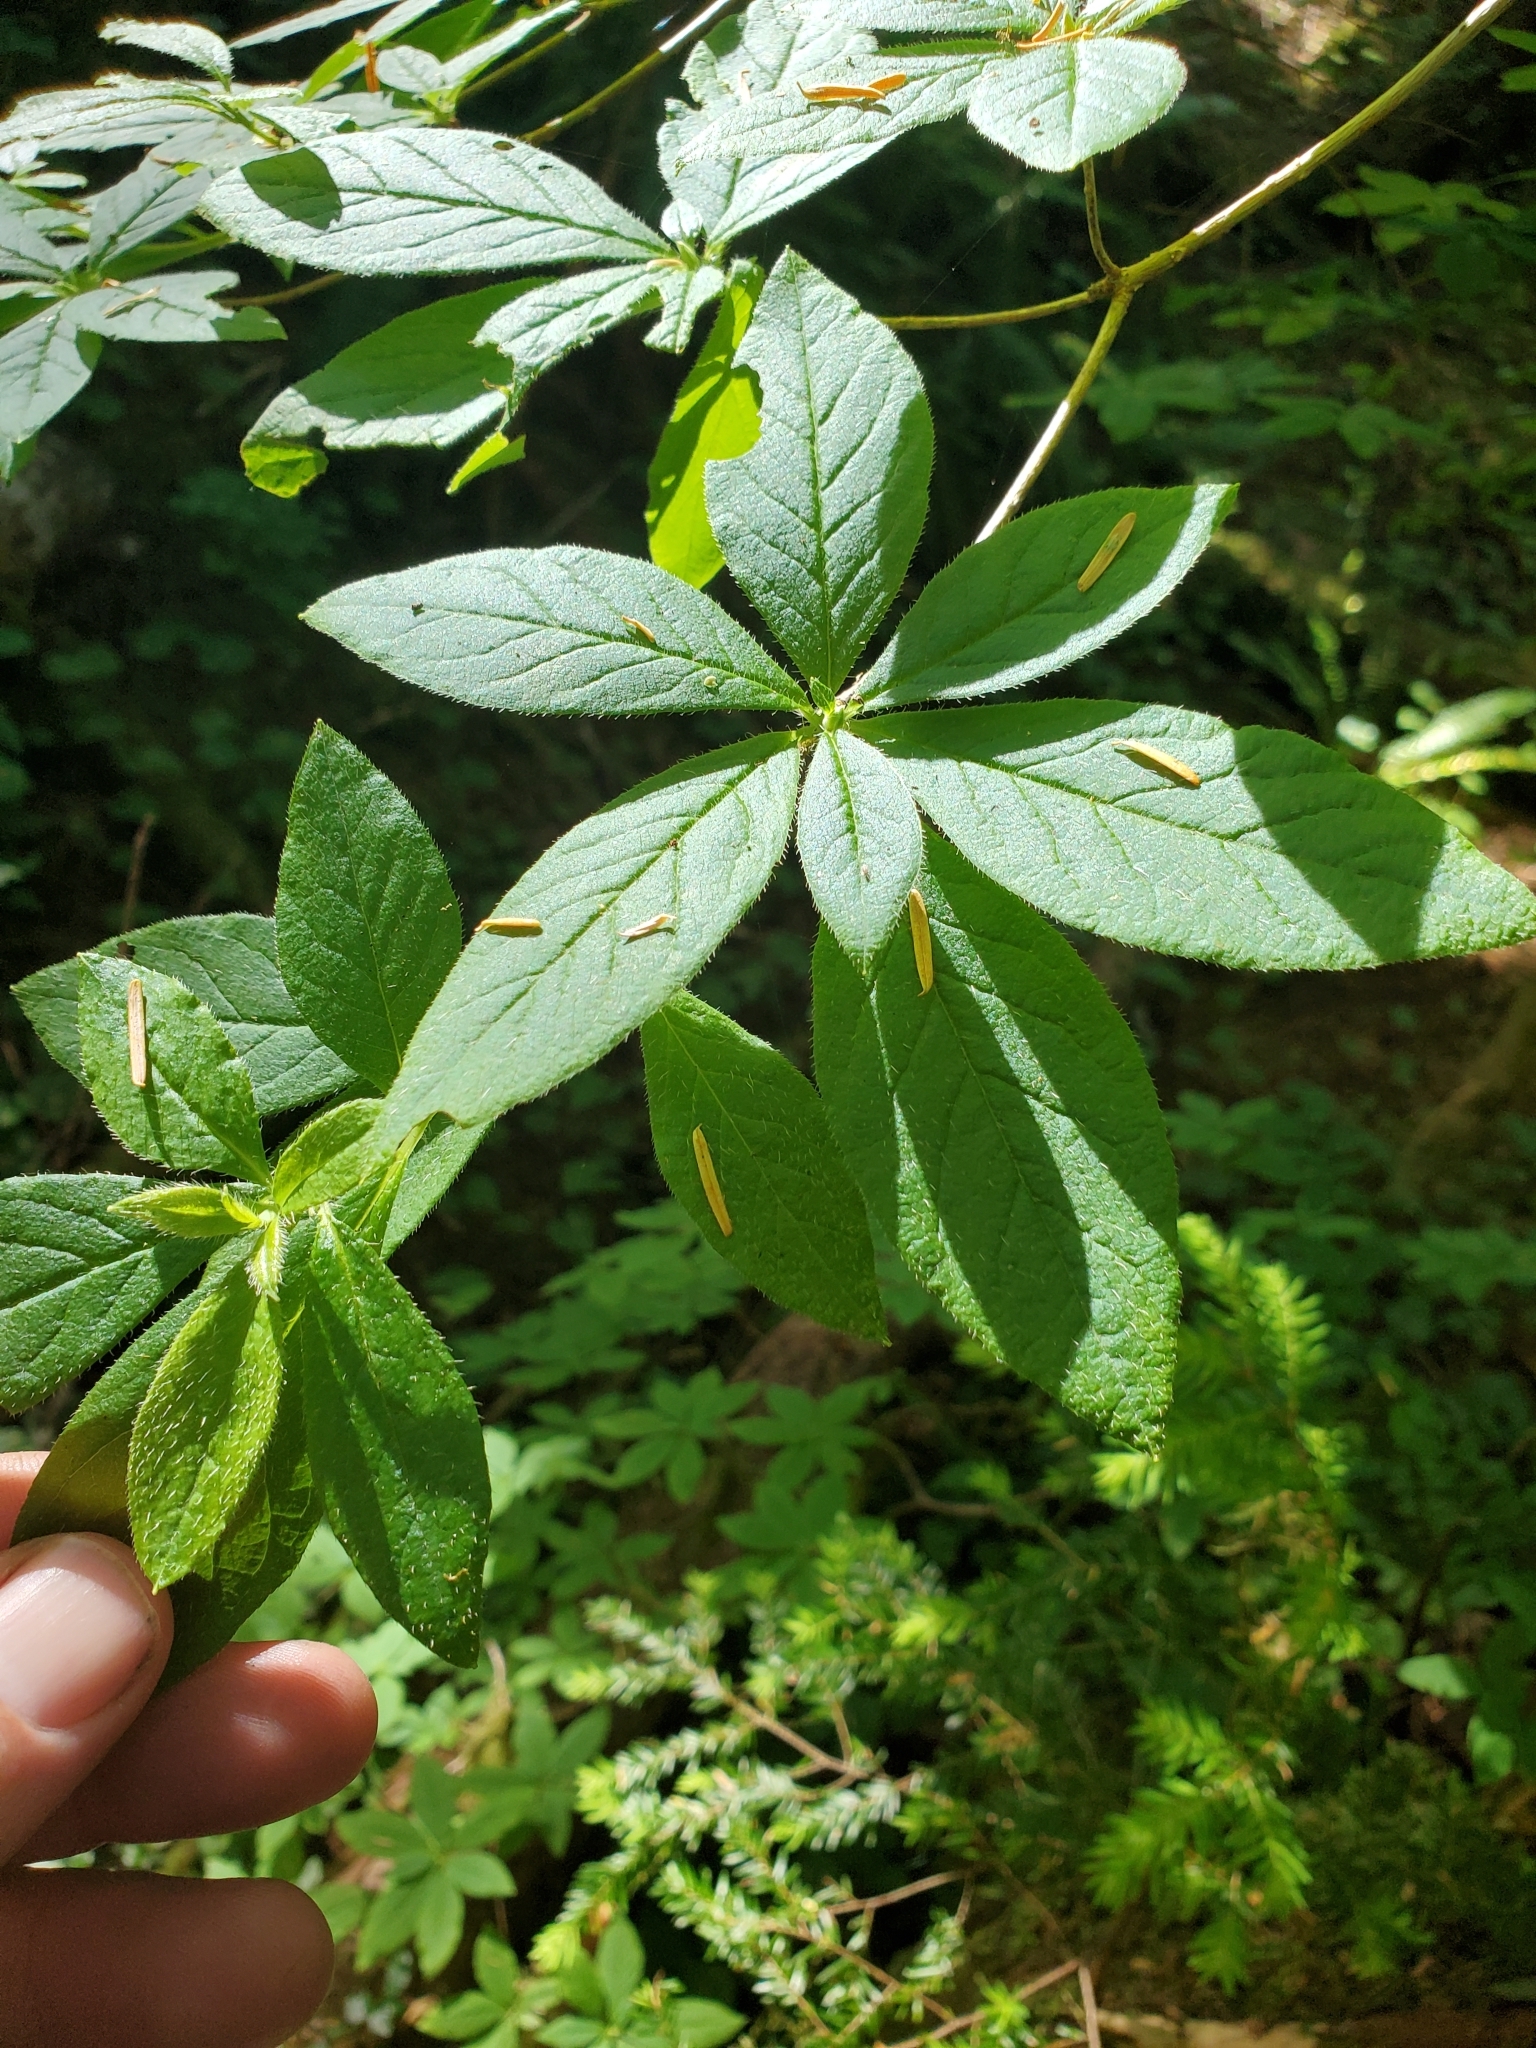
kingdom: Plantae
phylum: Tracheophyta
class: Magnoliopsida
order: Ericales
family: Ericaceae
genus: Rhododendron
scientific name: Rhododendron menziesii
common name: Pacific menziesia
